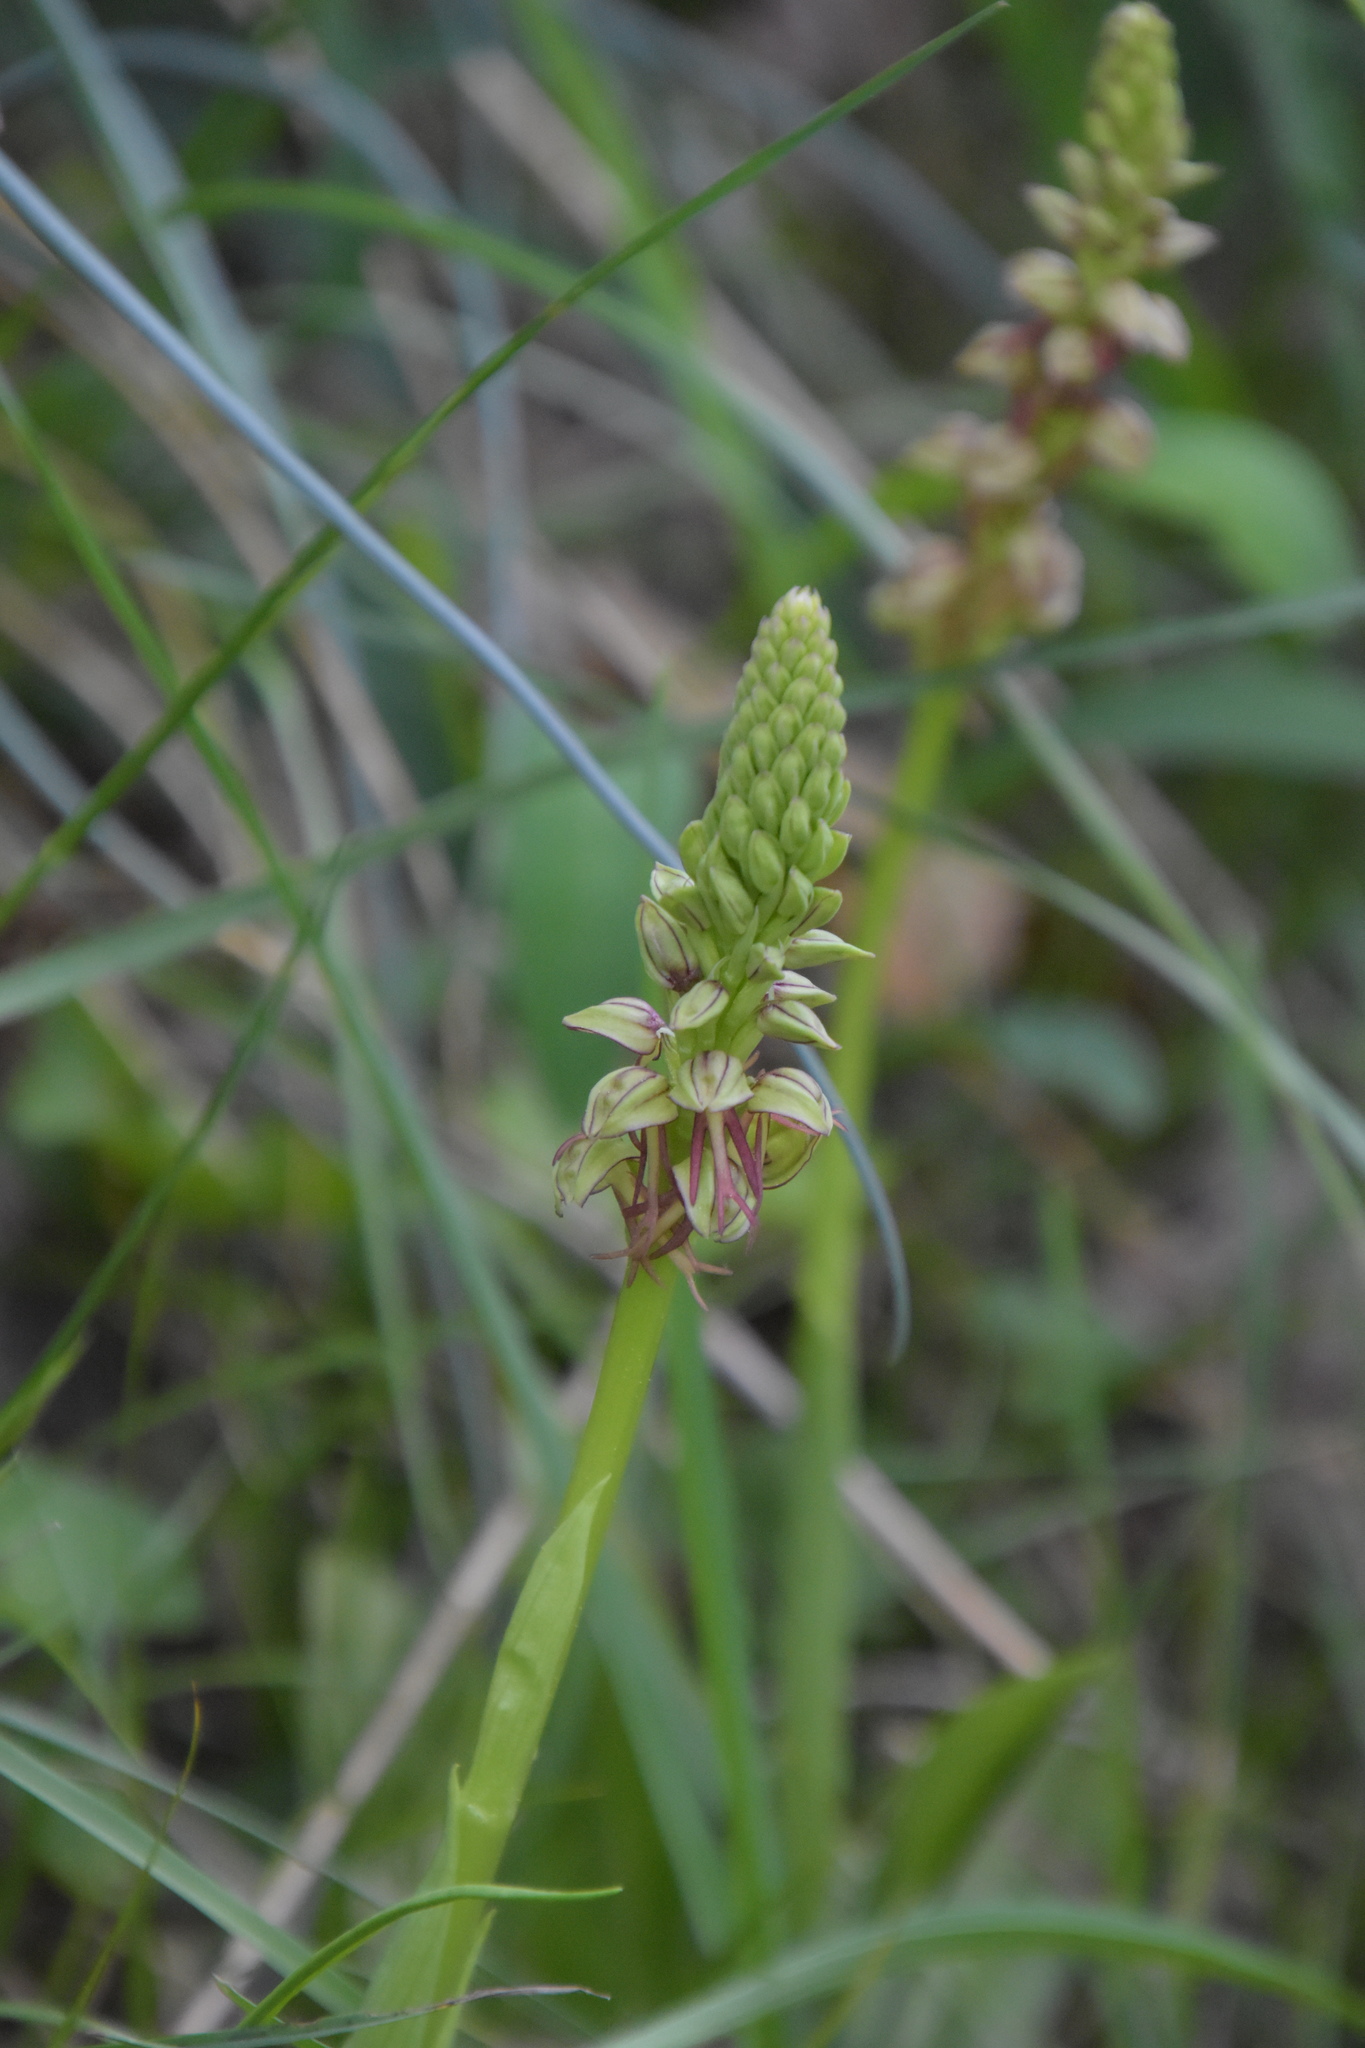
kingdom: Plantae
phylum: Tracheophyta
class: Liliopsida
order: Asparagales
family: Orchidaceae
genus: Orchis
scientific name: Orchis anthropophora
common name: Man orchid
